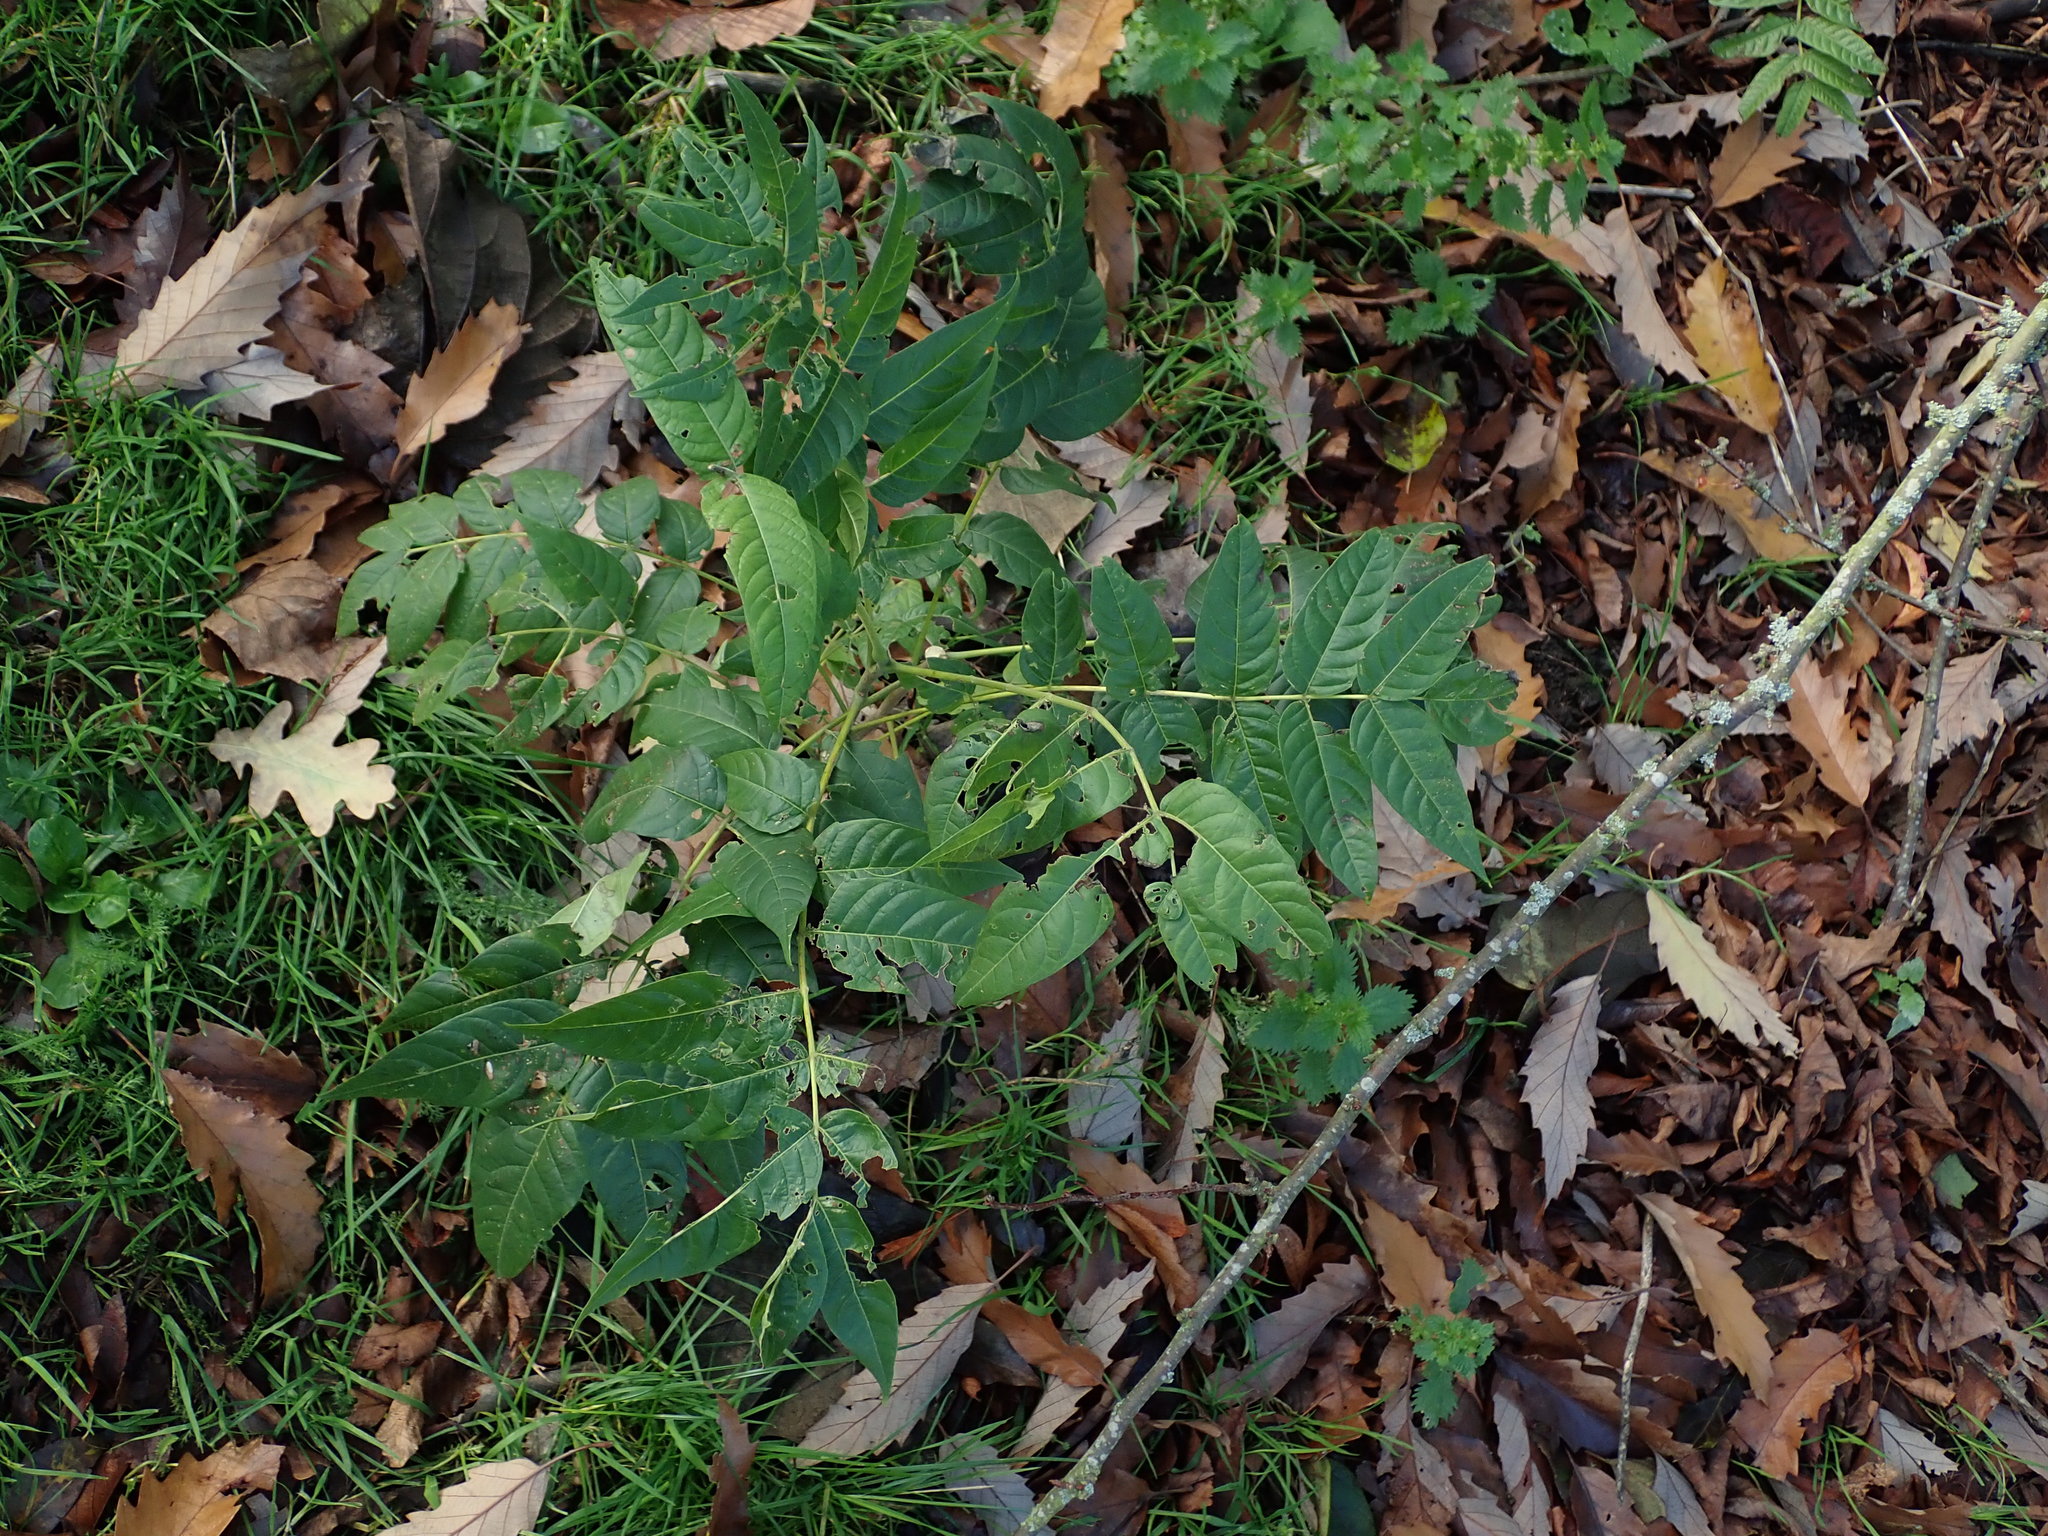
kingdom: Plantae
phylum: Tracheophyta
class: Magnoliopsida
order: Sapindales
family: Simaroubaceae
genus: Ailanthus
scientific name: Ailanthus altissima
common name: Tree-of-heaven
